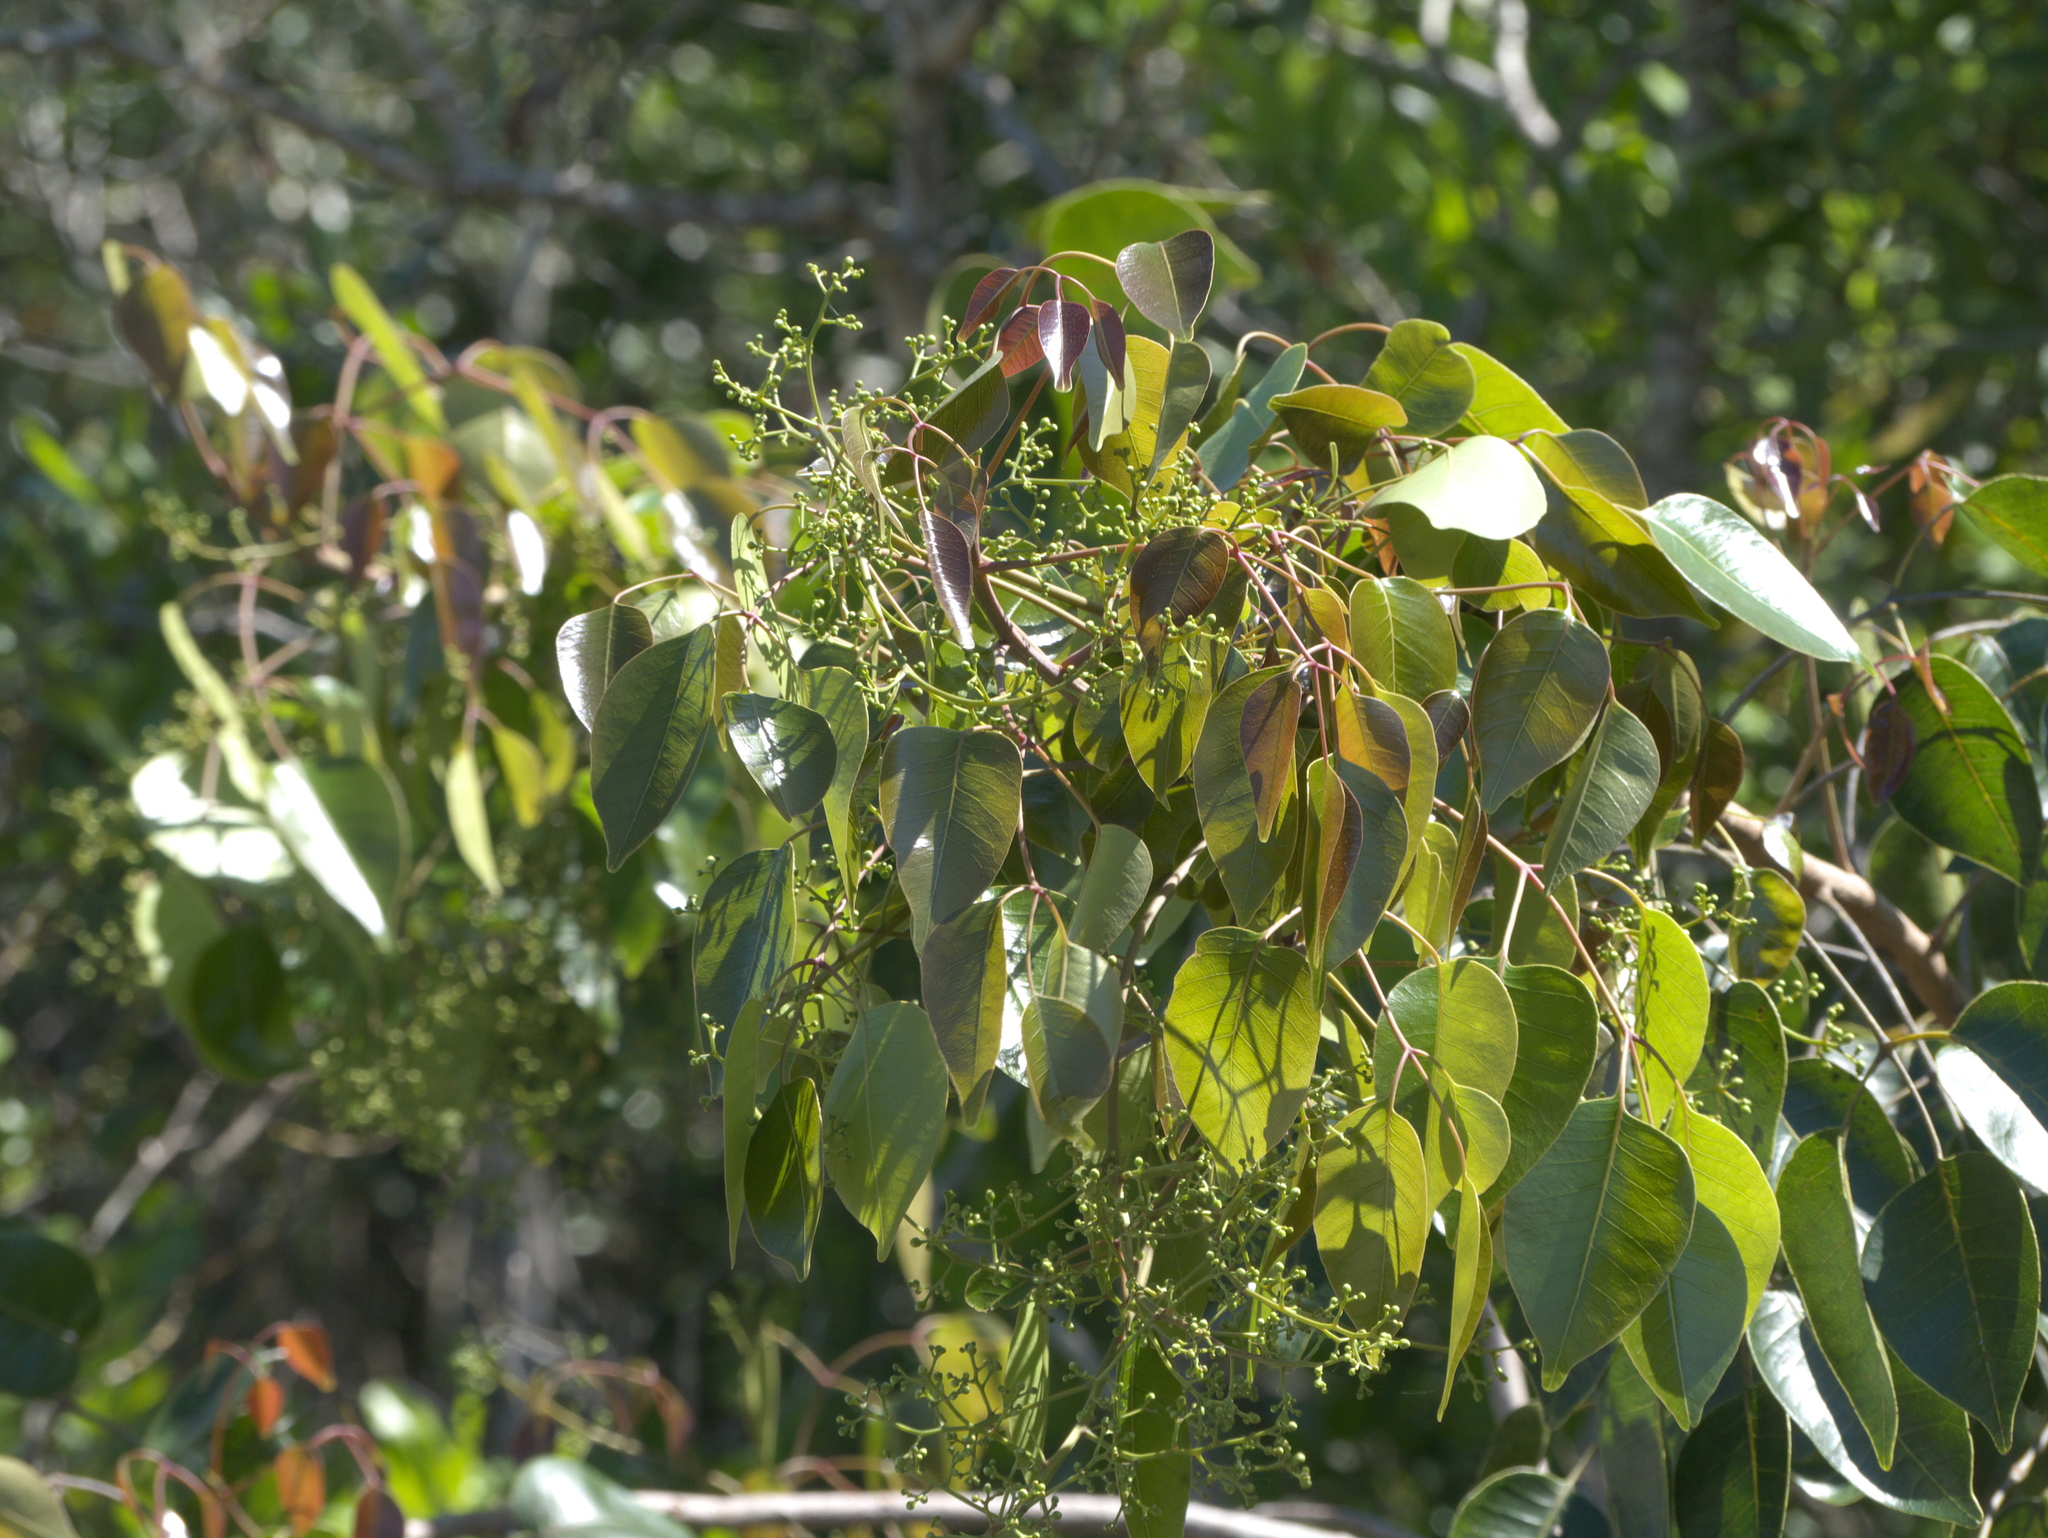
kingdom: Plantae
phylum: Tracheophyta
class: Magnoliopsida
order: Sapindales
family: Anacardiaceae
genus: Metopium
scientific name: Metopium toxiferum
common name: Florida poisontree
